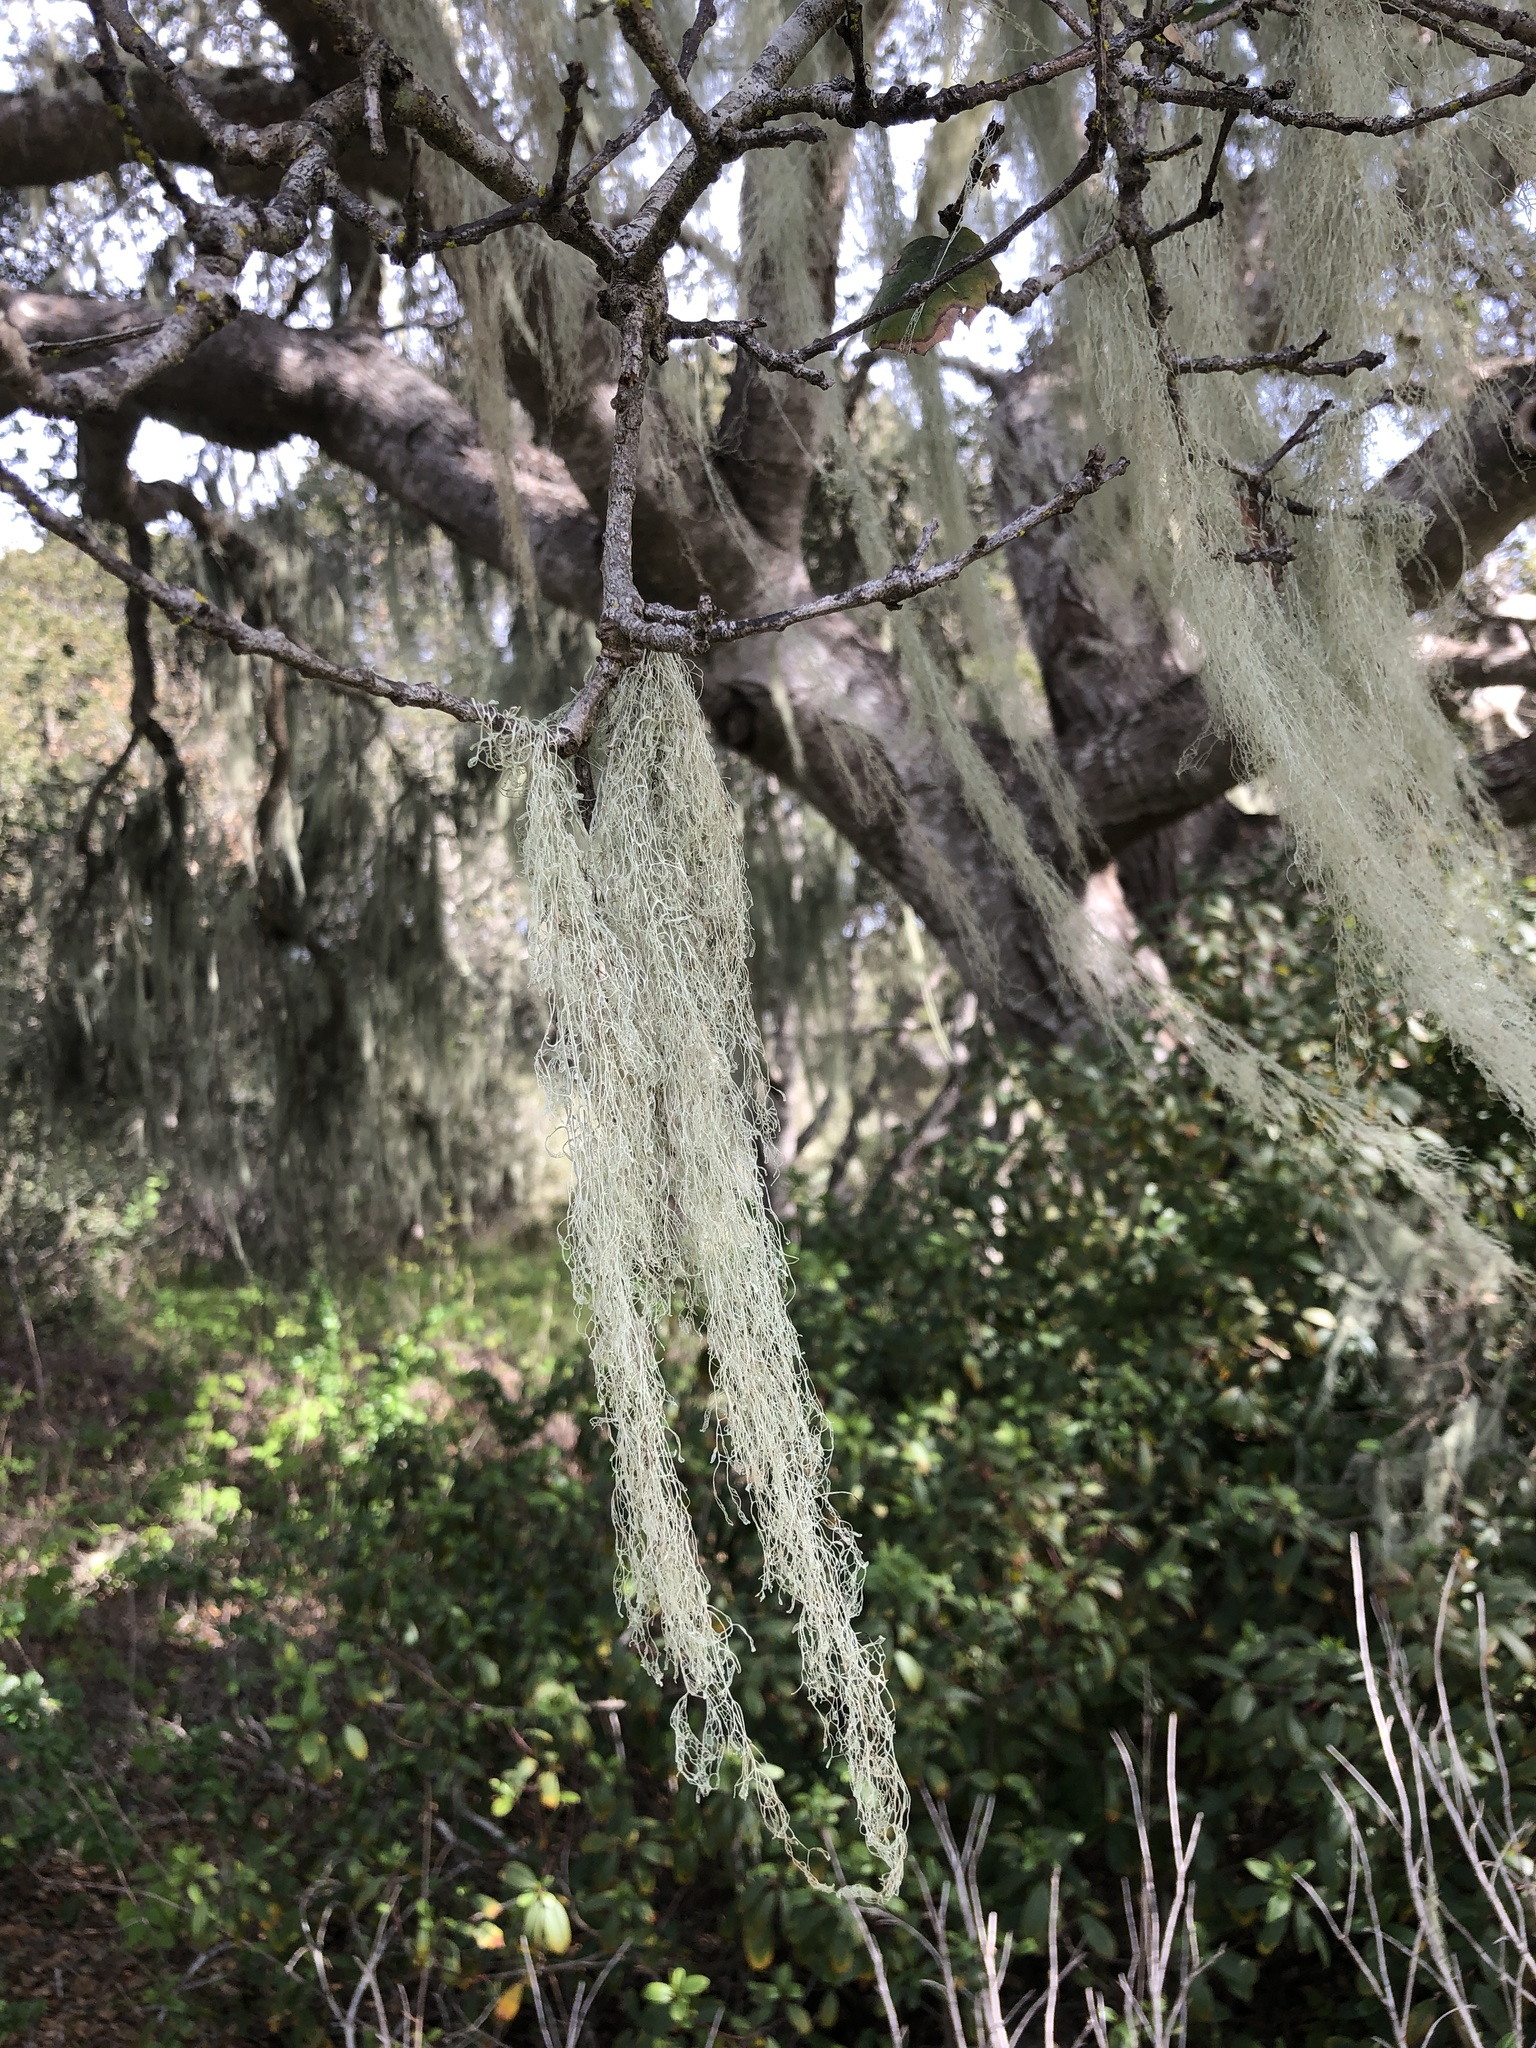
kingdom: Fungi
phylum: Ascomycota
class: Lecanoromycetes
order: Lecanorales
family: Ramalinaceae
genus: Ramalina
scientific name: Ramalina menziesii
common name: Lace lichen
